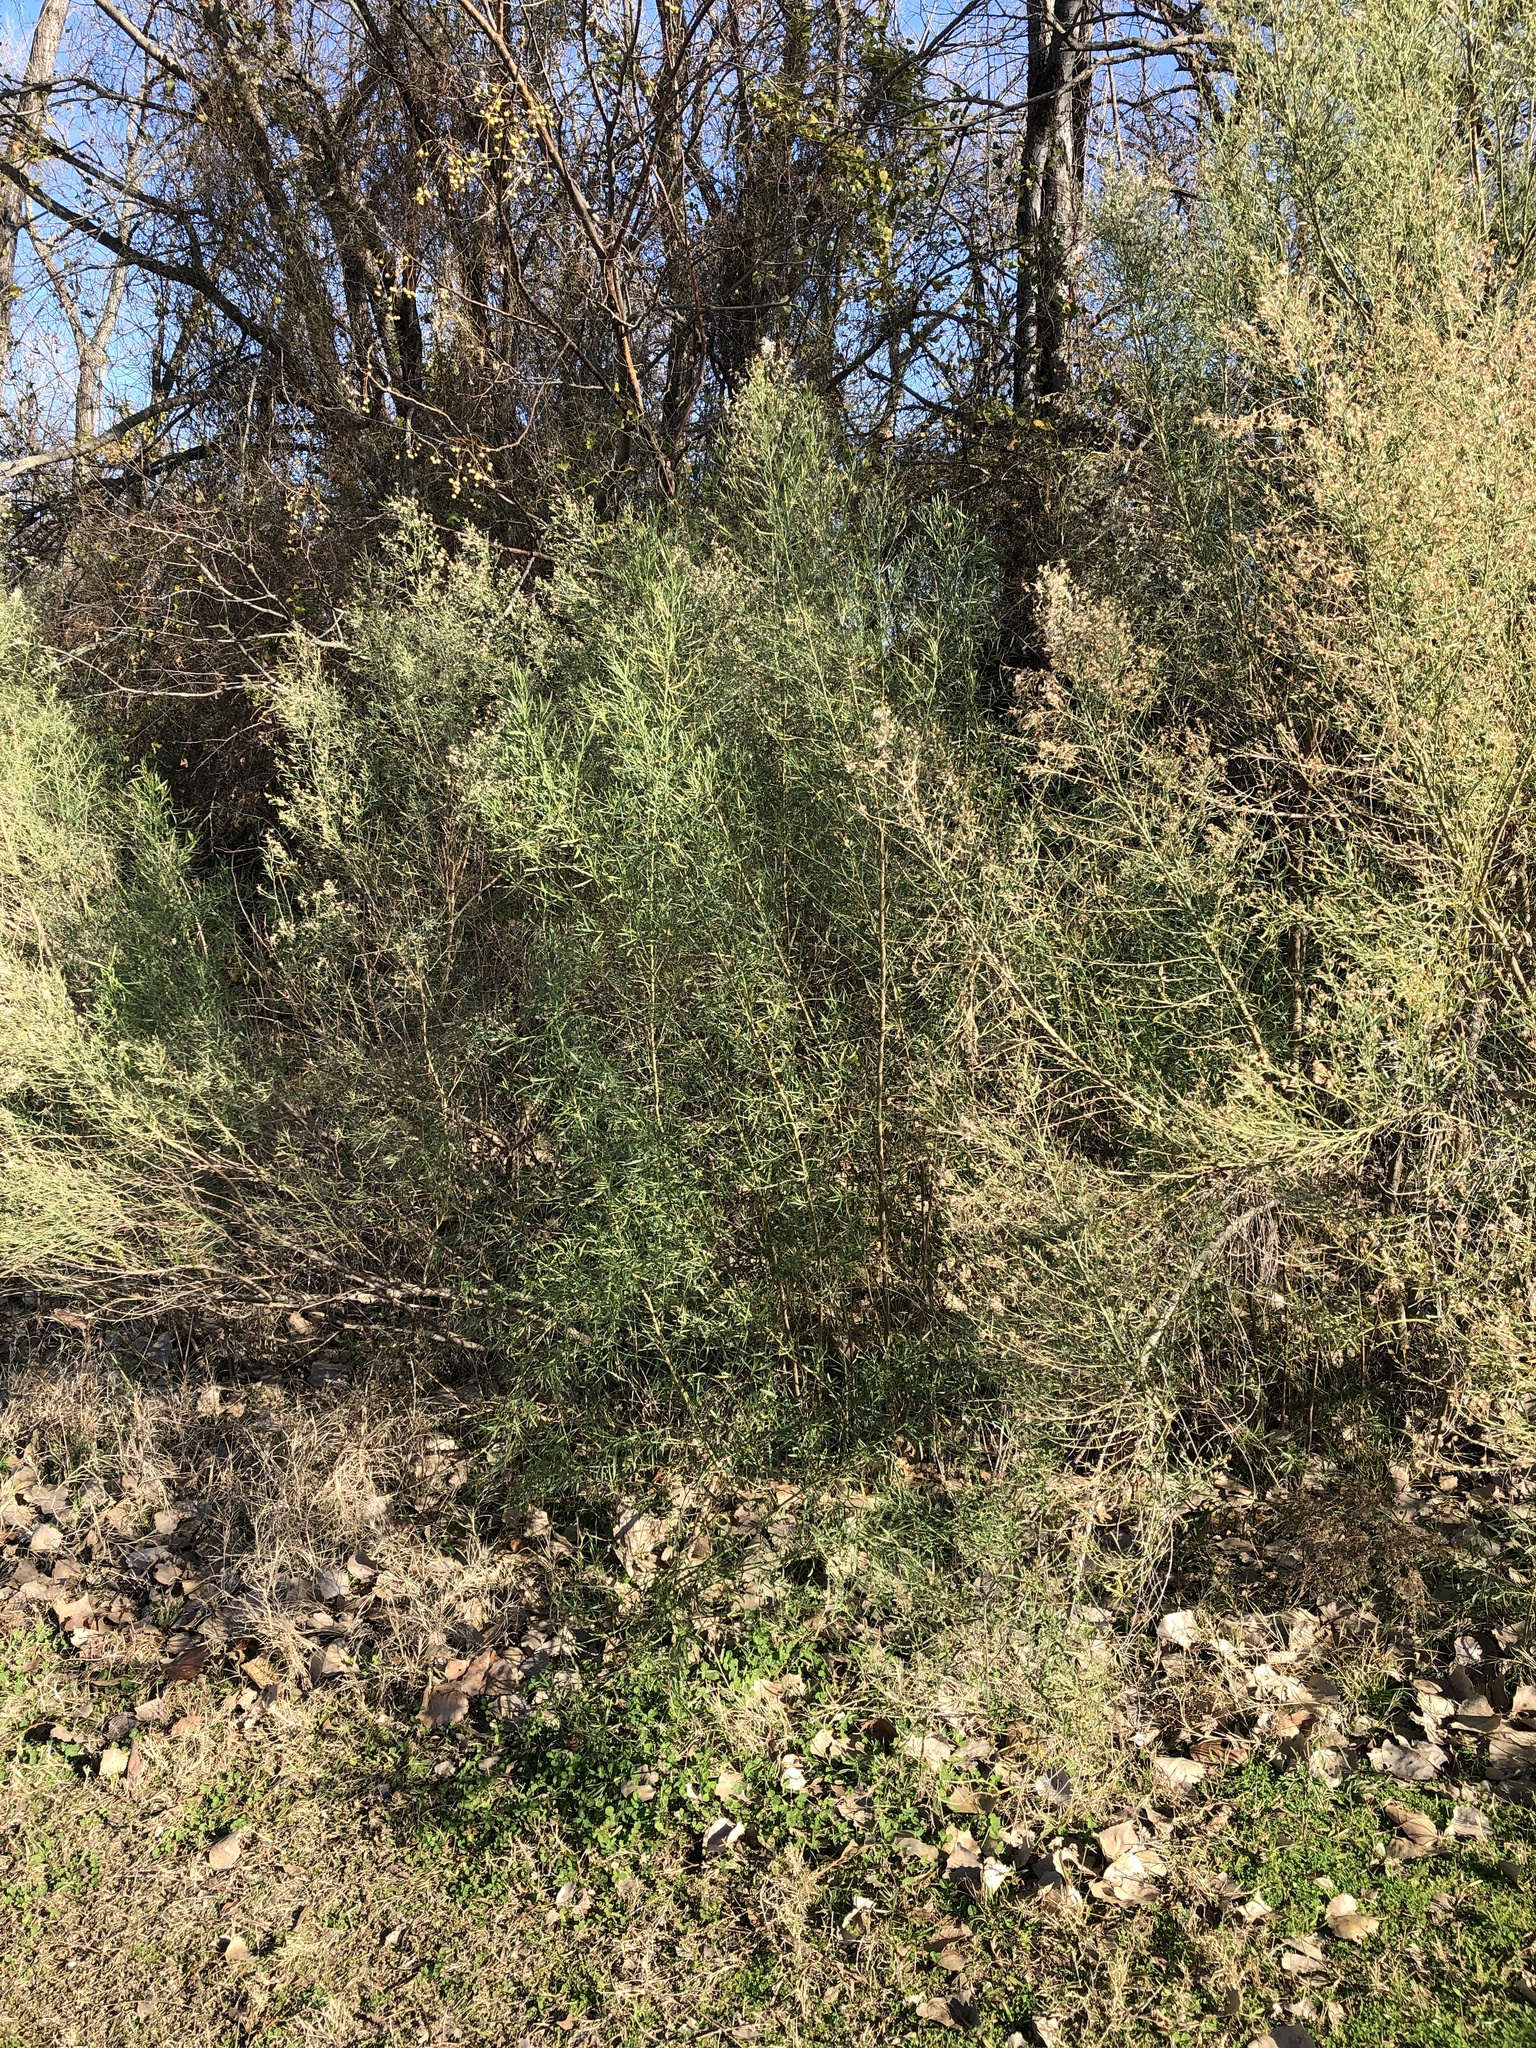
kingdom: Plantae
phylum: Tracheophyta
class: Magnoliopsida
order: Asterales
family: Asteraceae
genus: Baccharis
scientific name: Baccharis neglecta
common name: Roosevelt-weed
